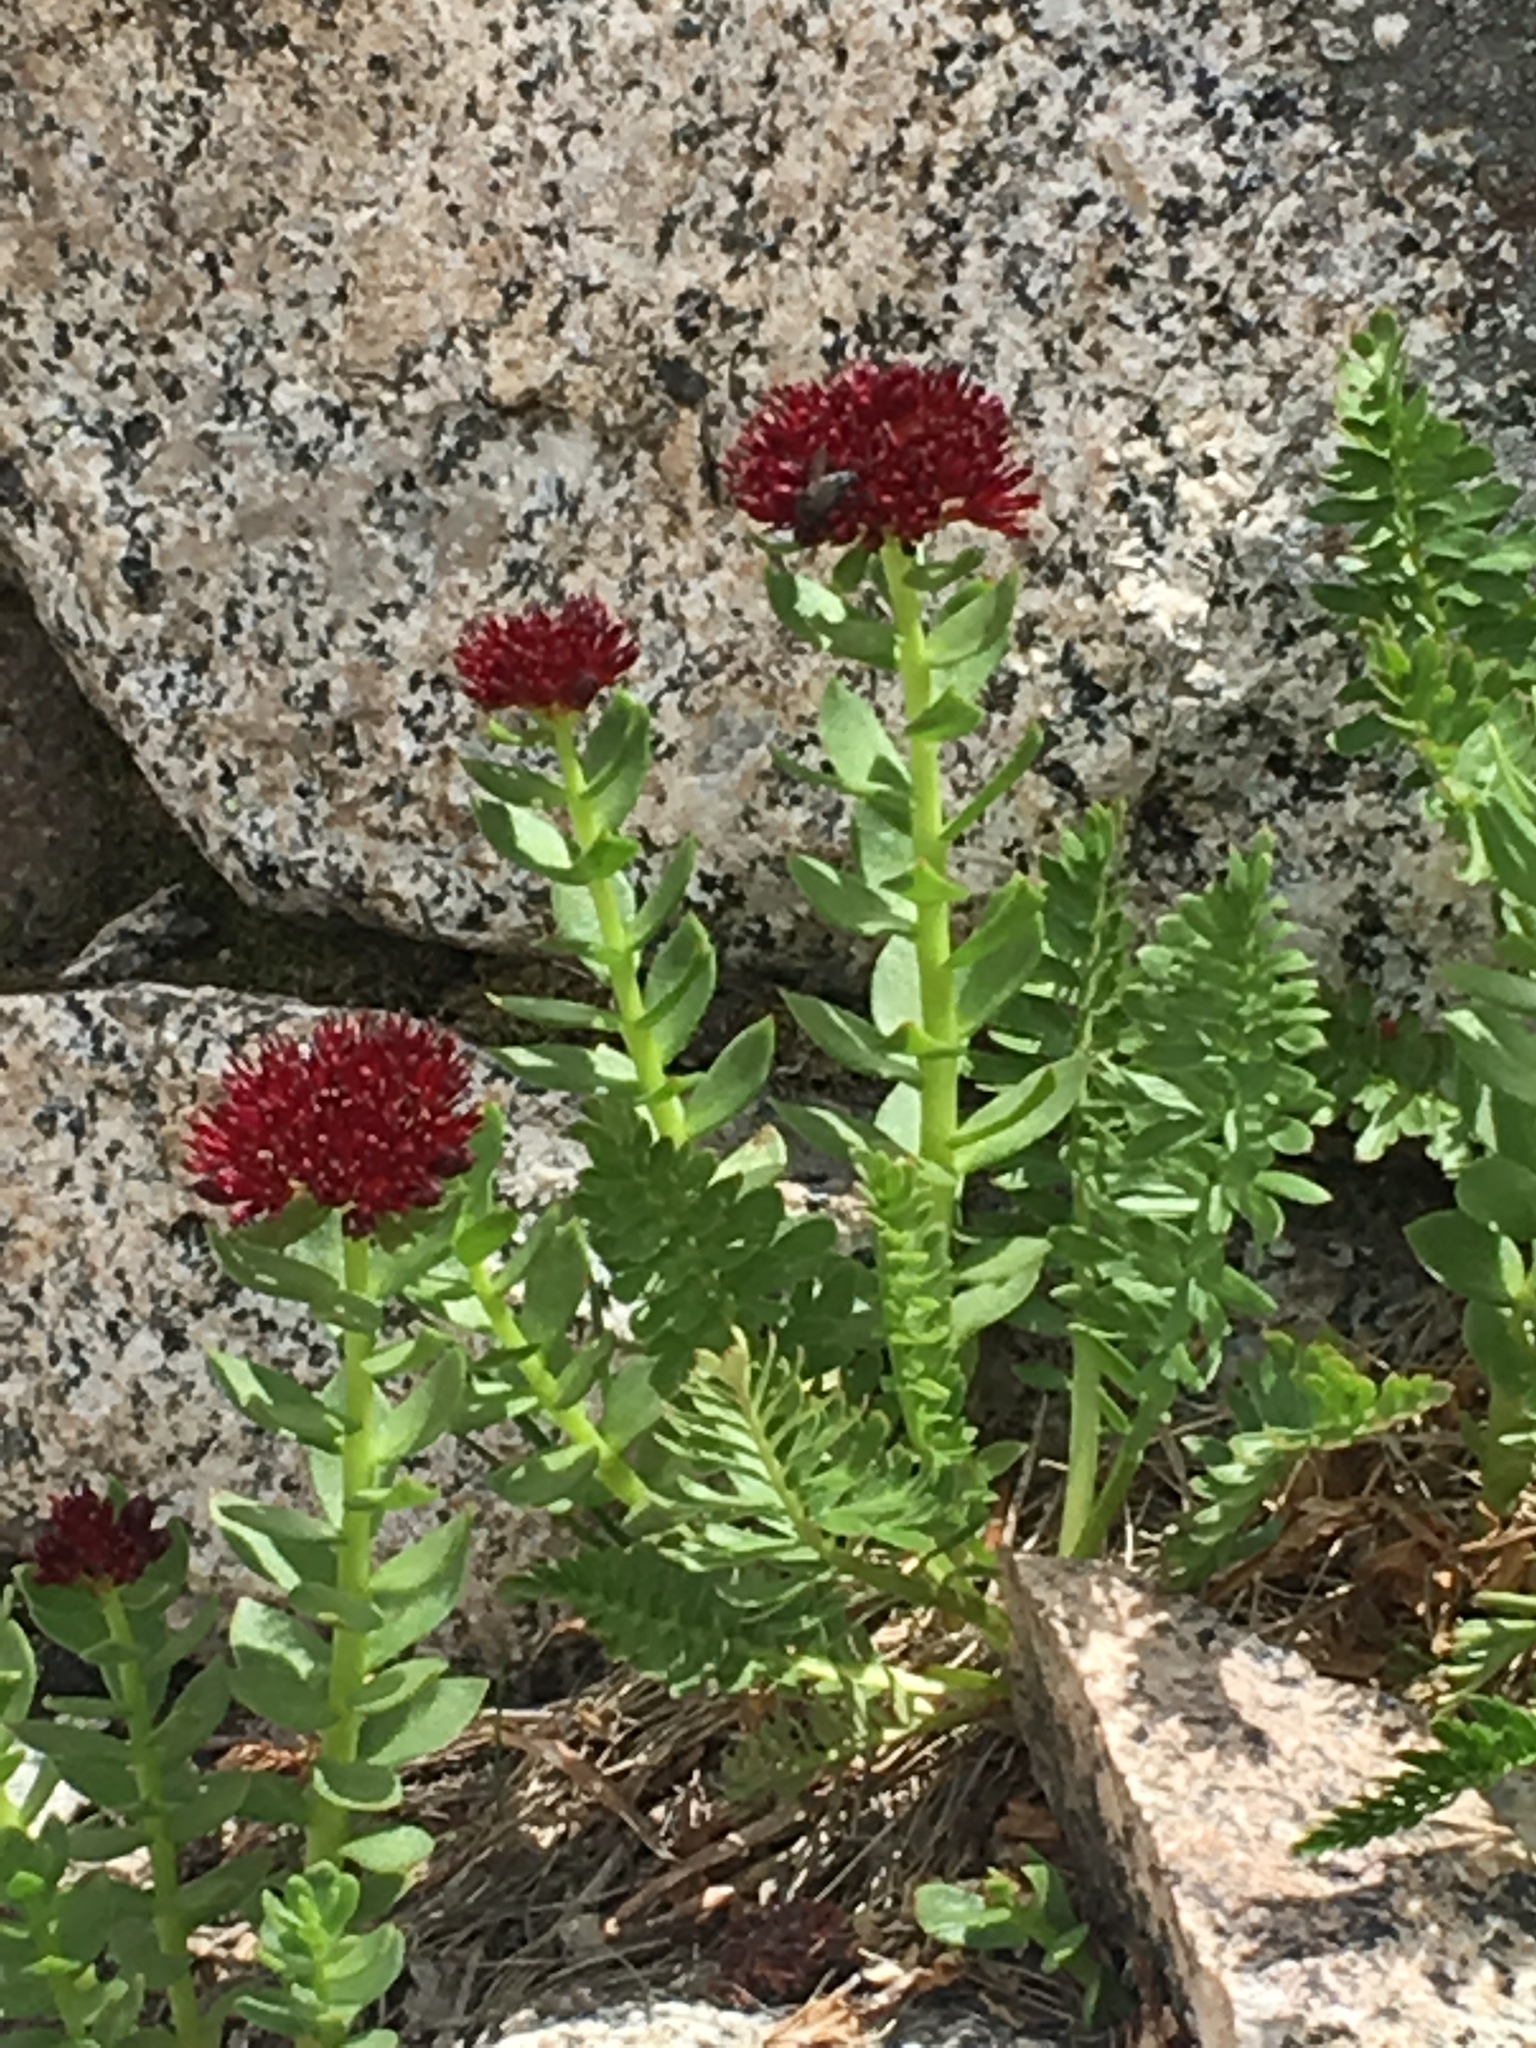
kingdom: Plantae
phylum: Tracheophyta
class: Magnoliopsida
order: Saxifragales
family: Crassulaceae
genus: Rhodiola
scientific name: Rhodiola integrifolia
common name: Western roseroot
